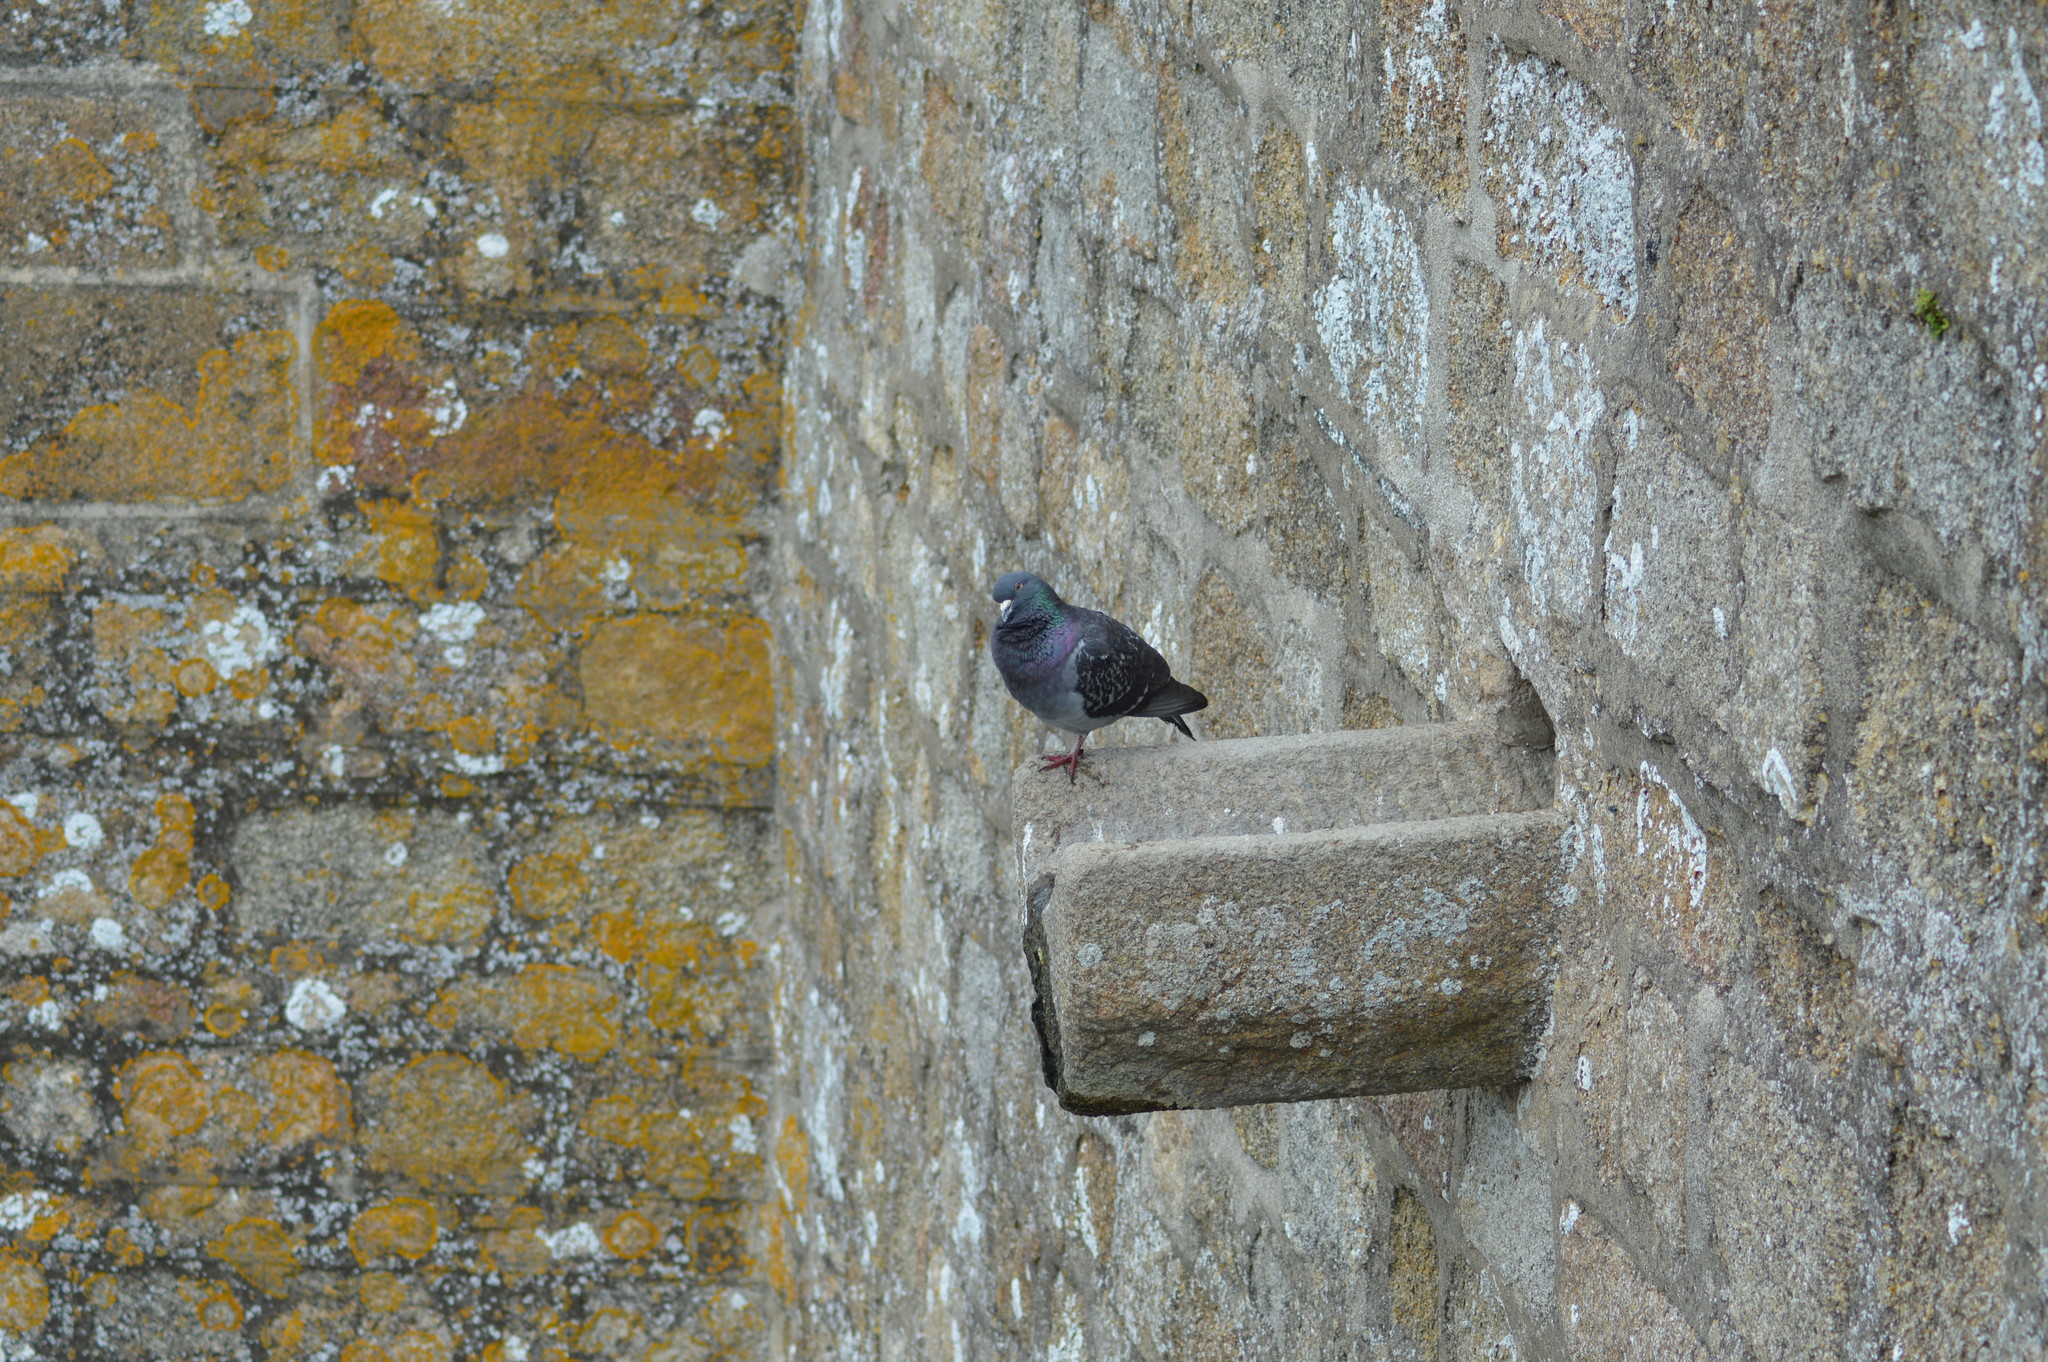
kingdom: Animalia
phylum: Chordata
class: Aves
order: Columbiformes
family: Columbidae
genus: Columba
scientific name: Columba livia
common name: Rock pigeon
